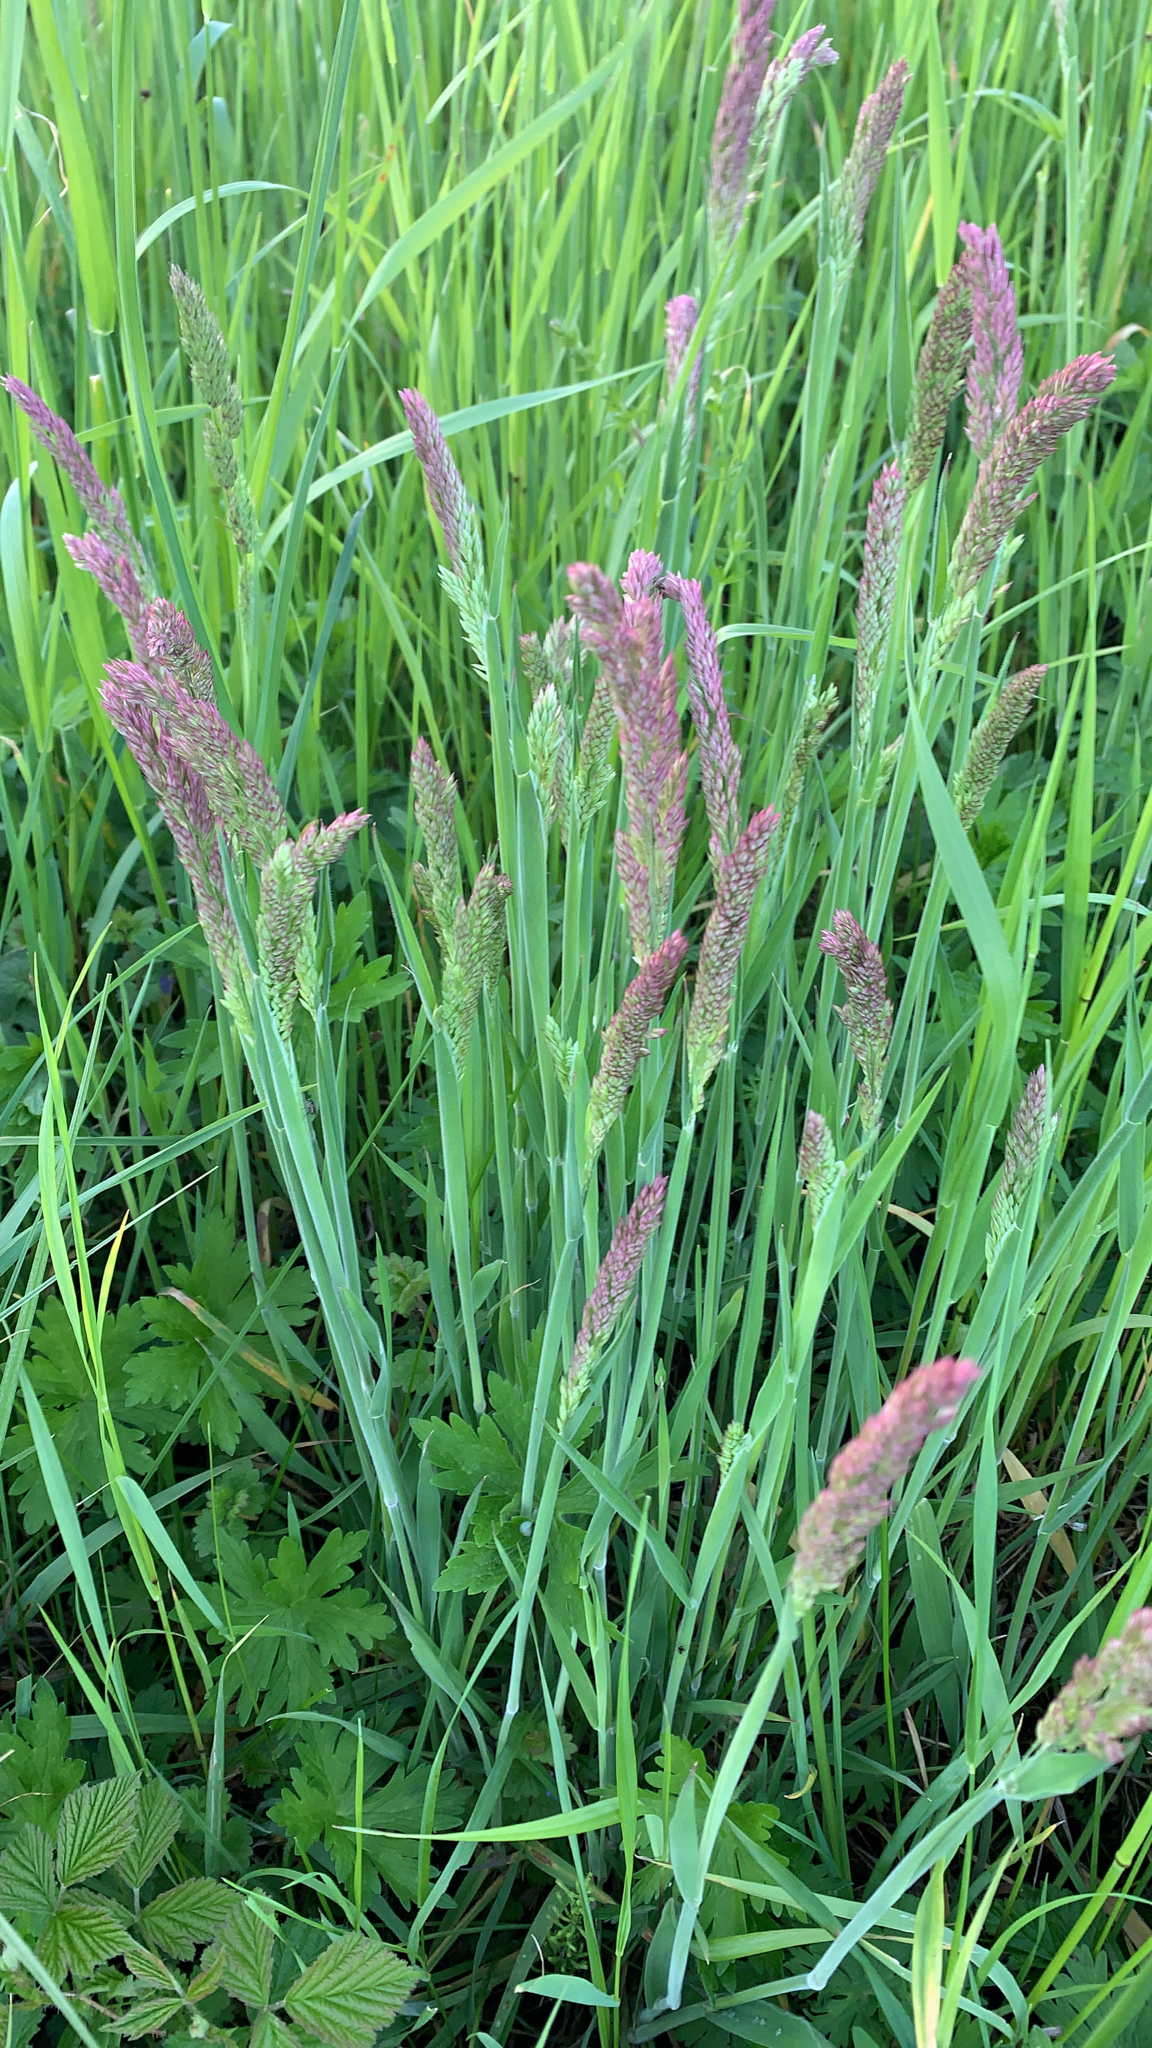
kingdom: Plantae
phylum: Tracheophyta
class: Liliopsida
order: Poales
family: Poaceae
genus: Holcus
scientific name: Holcus lanatus
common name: Yorkshire-fog
